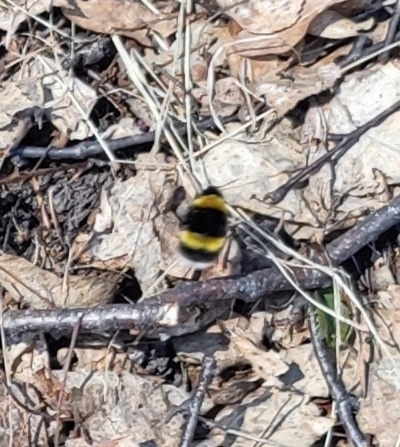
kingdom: Animalia
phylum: Arthropoda
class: Insecta
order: Hymenoptera
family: Apidae
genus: Bombus
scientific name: Bombus
